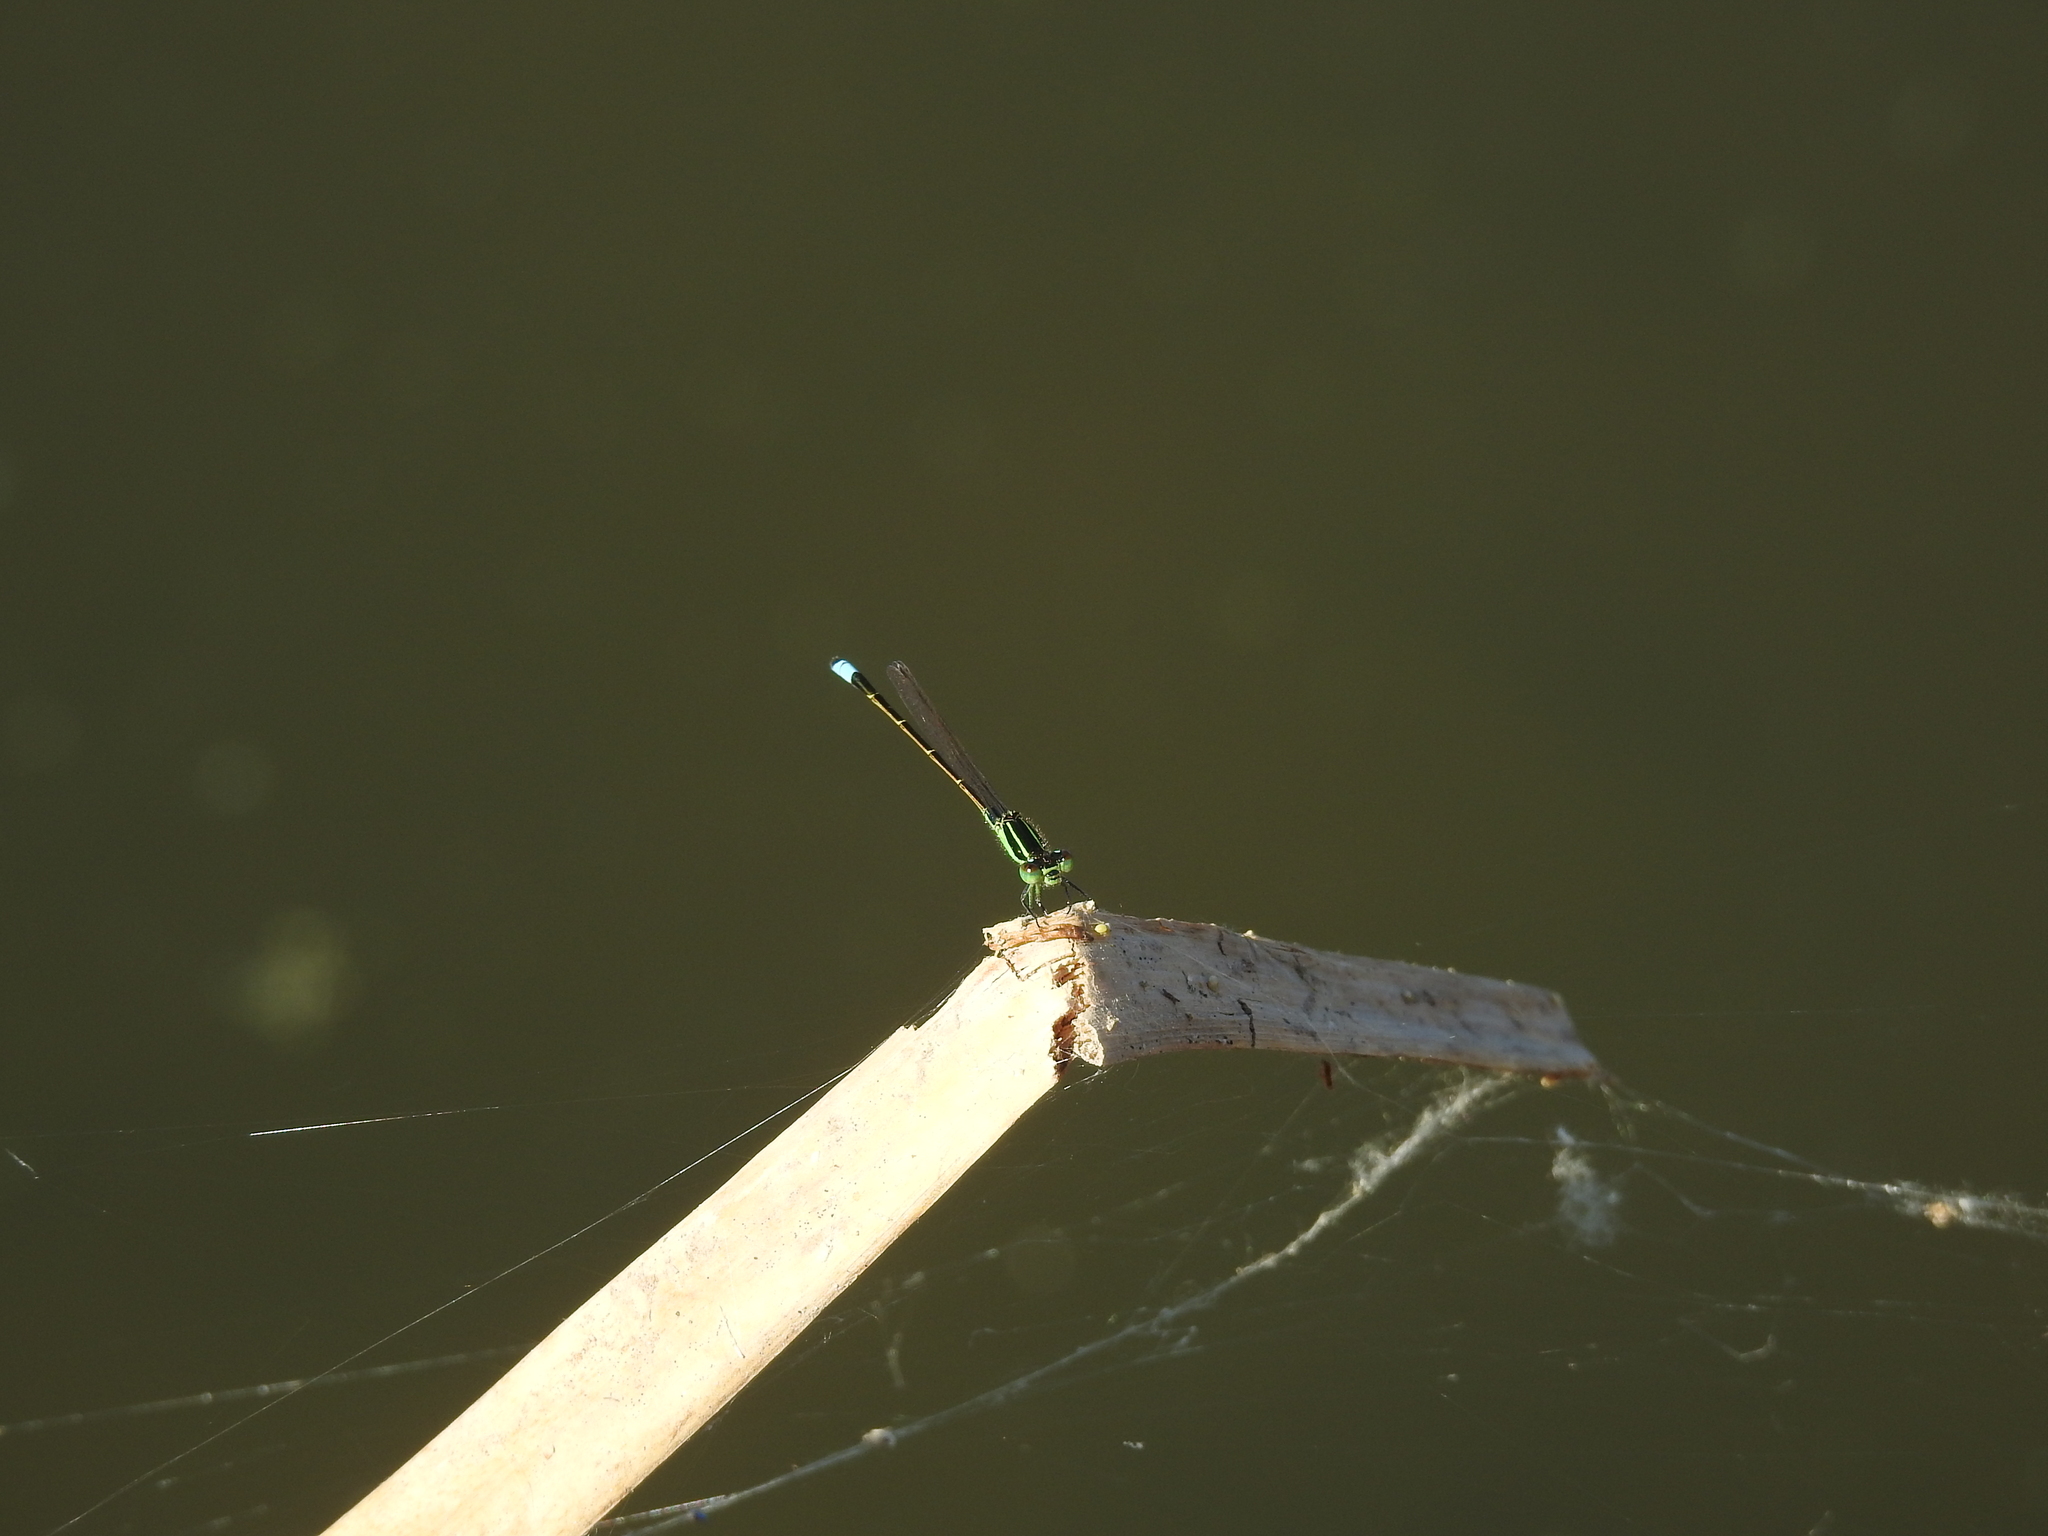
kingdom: Animalia
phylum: Arthropoda
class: Insecta
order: Odonata
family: Coenagrionidae
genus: Ischnura
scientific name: Ischnura ramburii
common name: Rambur's forktail
